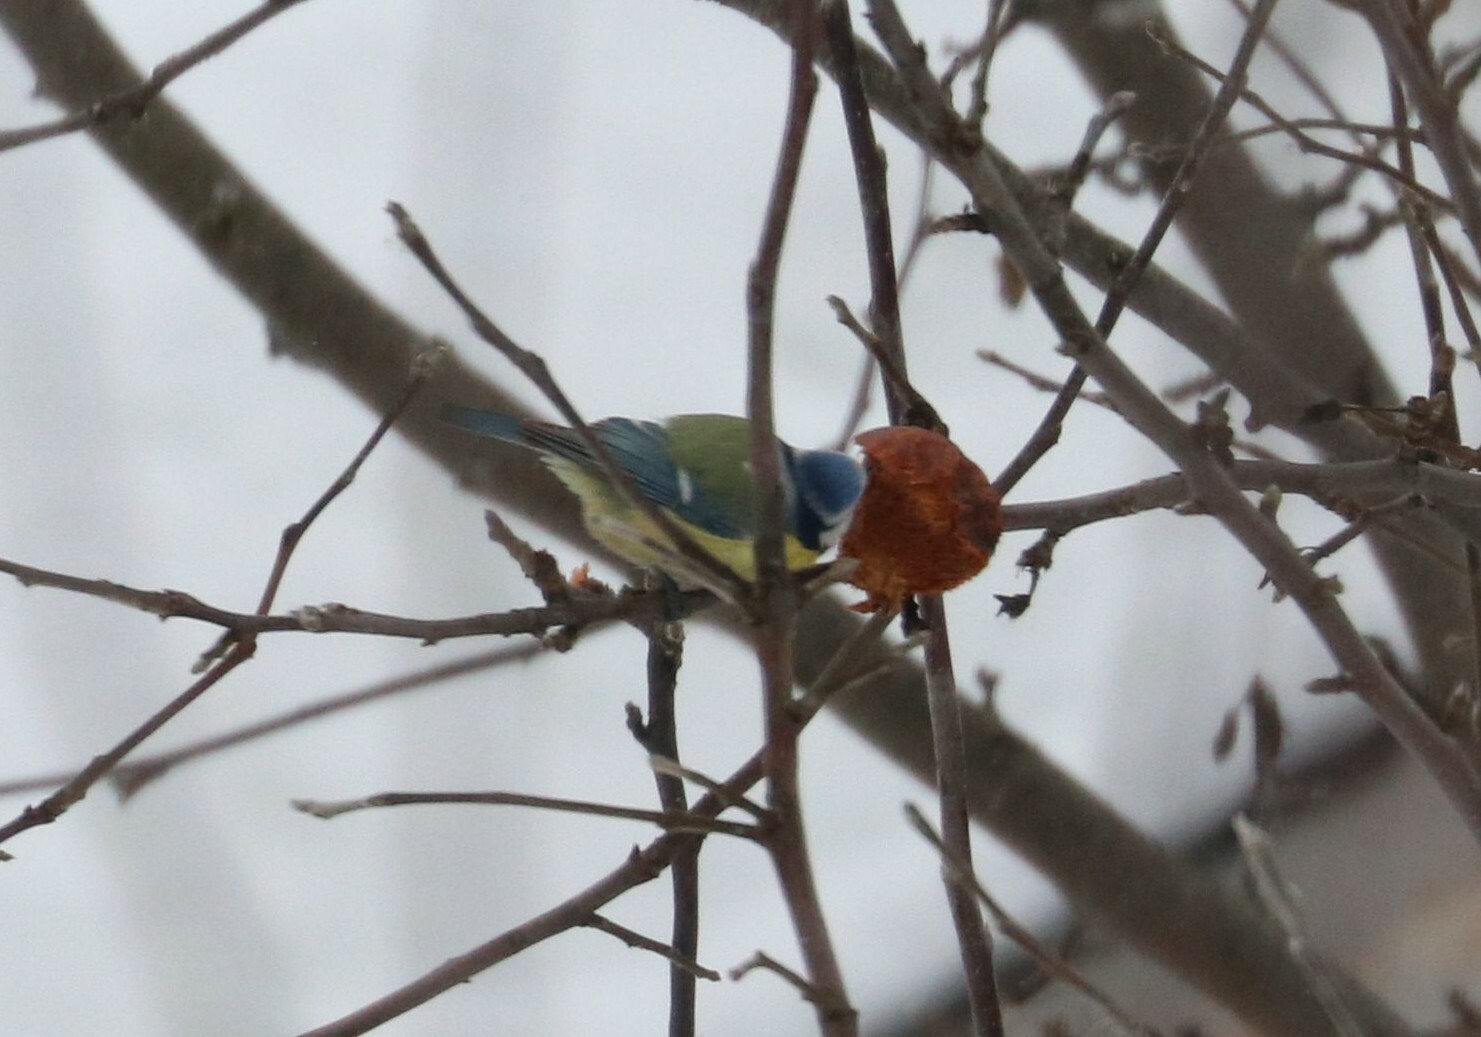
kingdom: Animalia
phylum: Chordata
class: Aves
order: Passeriformes
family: Paridae
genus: Cyanistes
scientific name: Cyanistes caeruleus
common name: Eurasian blue tit
